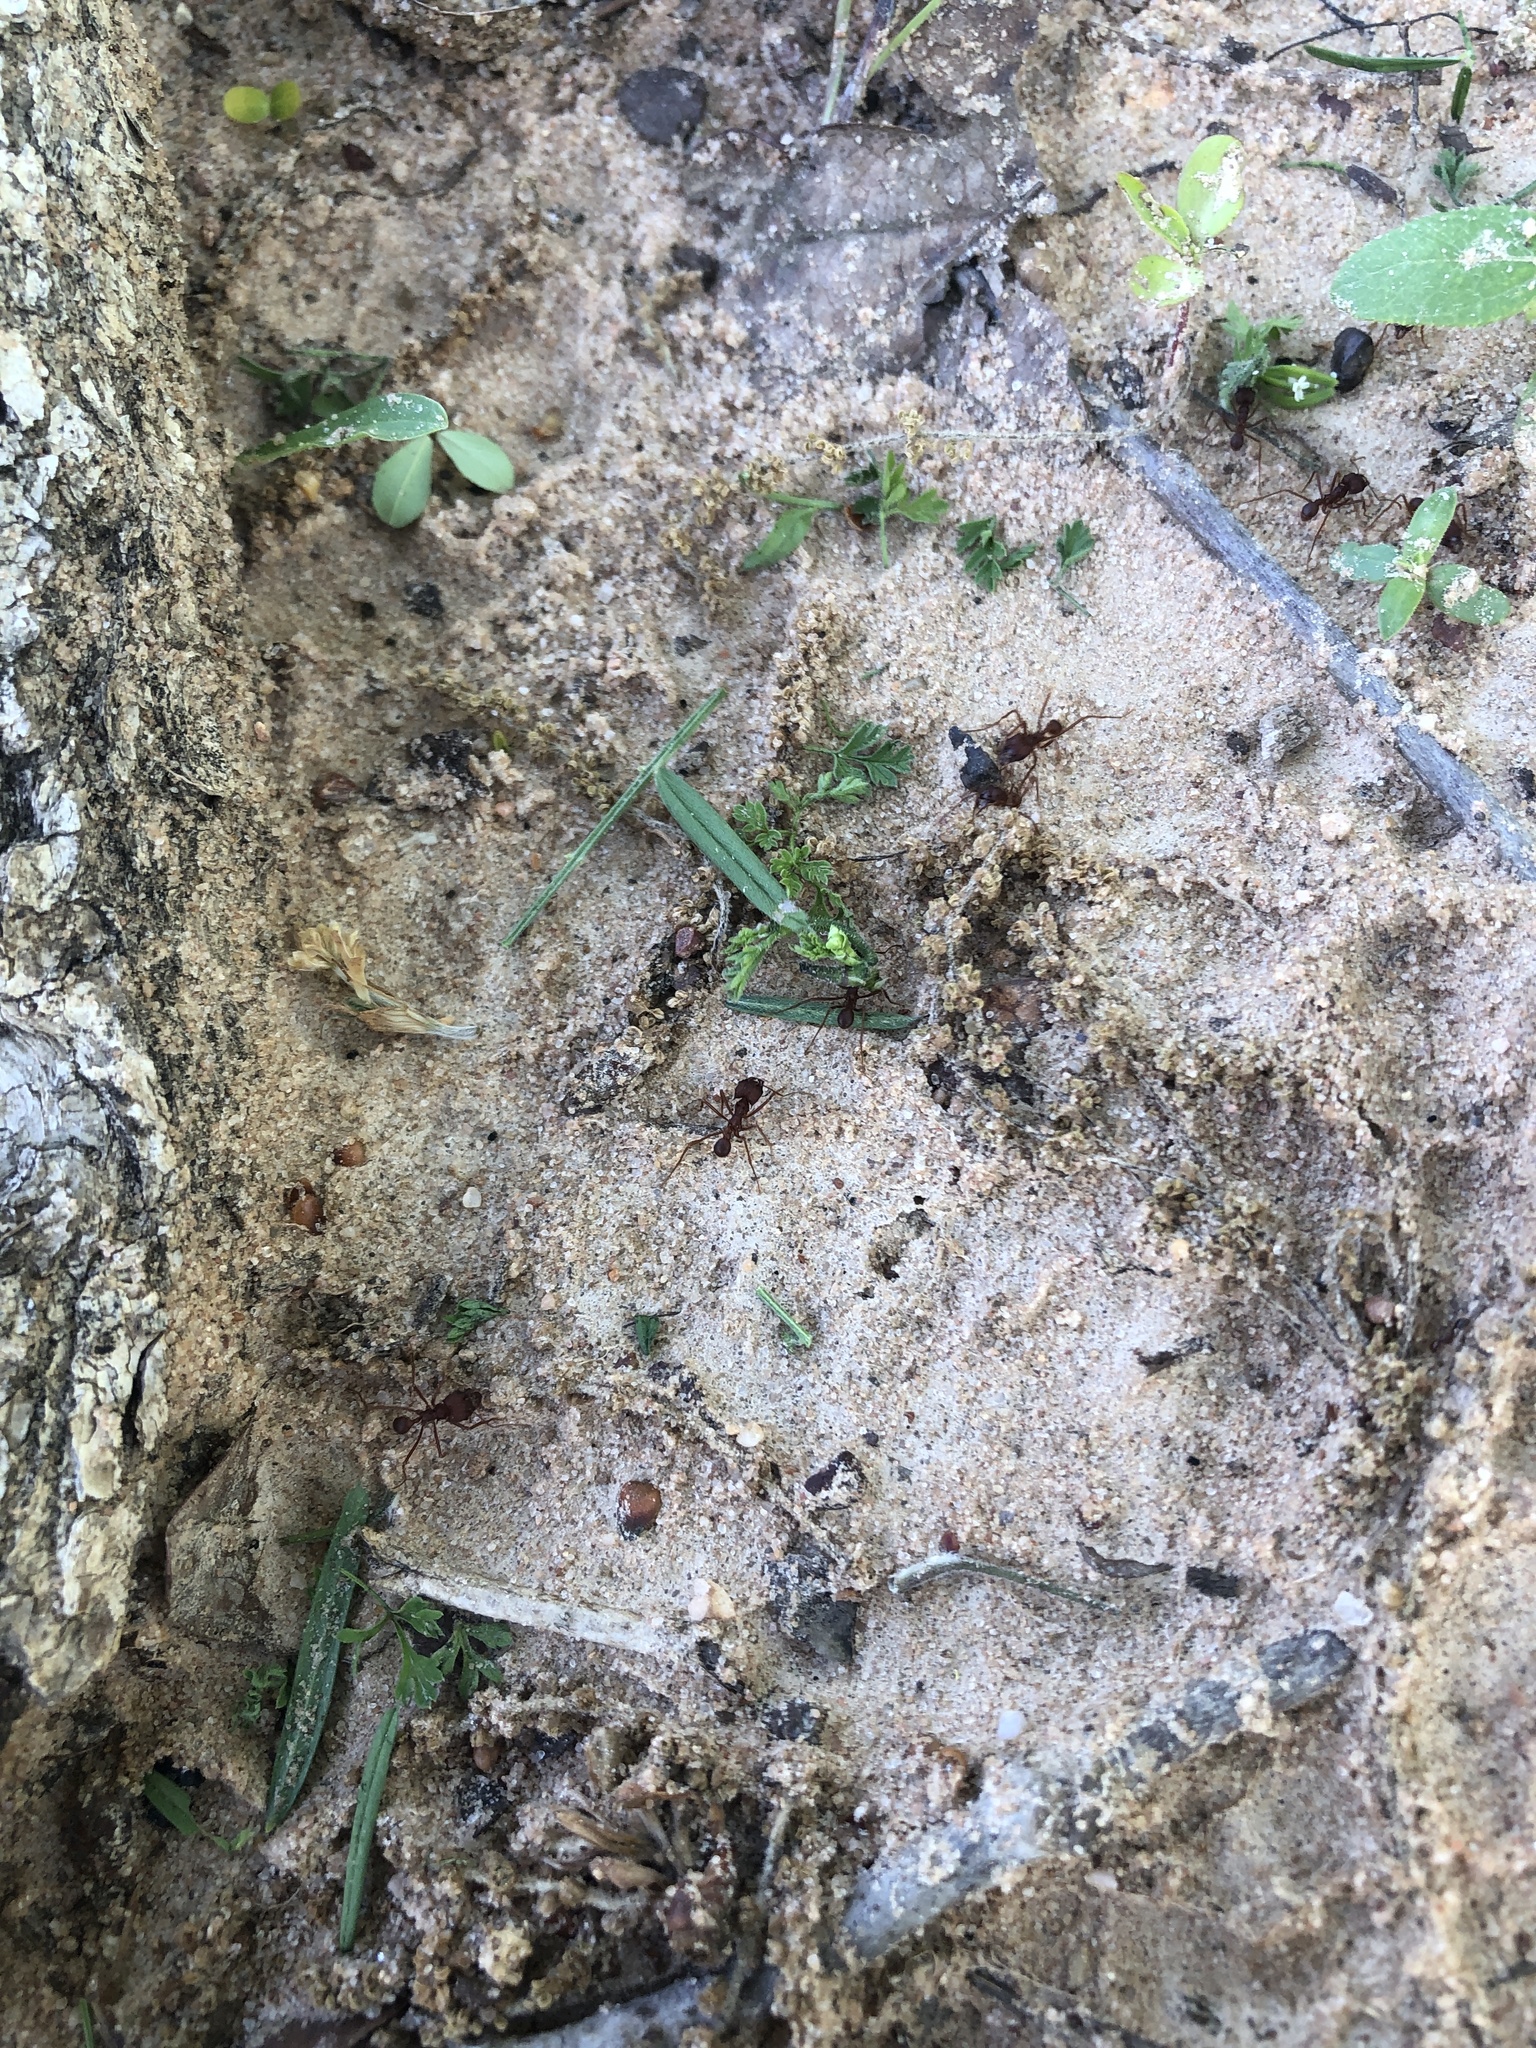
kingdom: Animalia
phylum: Arthropoda
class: Insecta
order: Hymenoptera
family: Formicidae
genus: Atta
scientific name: Atta texana
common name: Texas leafcutting ant
